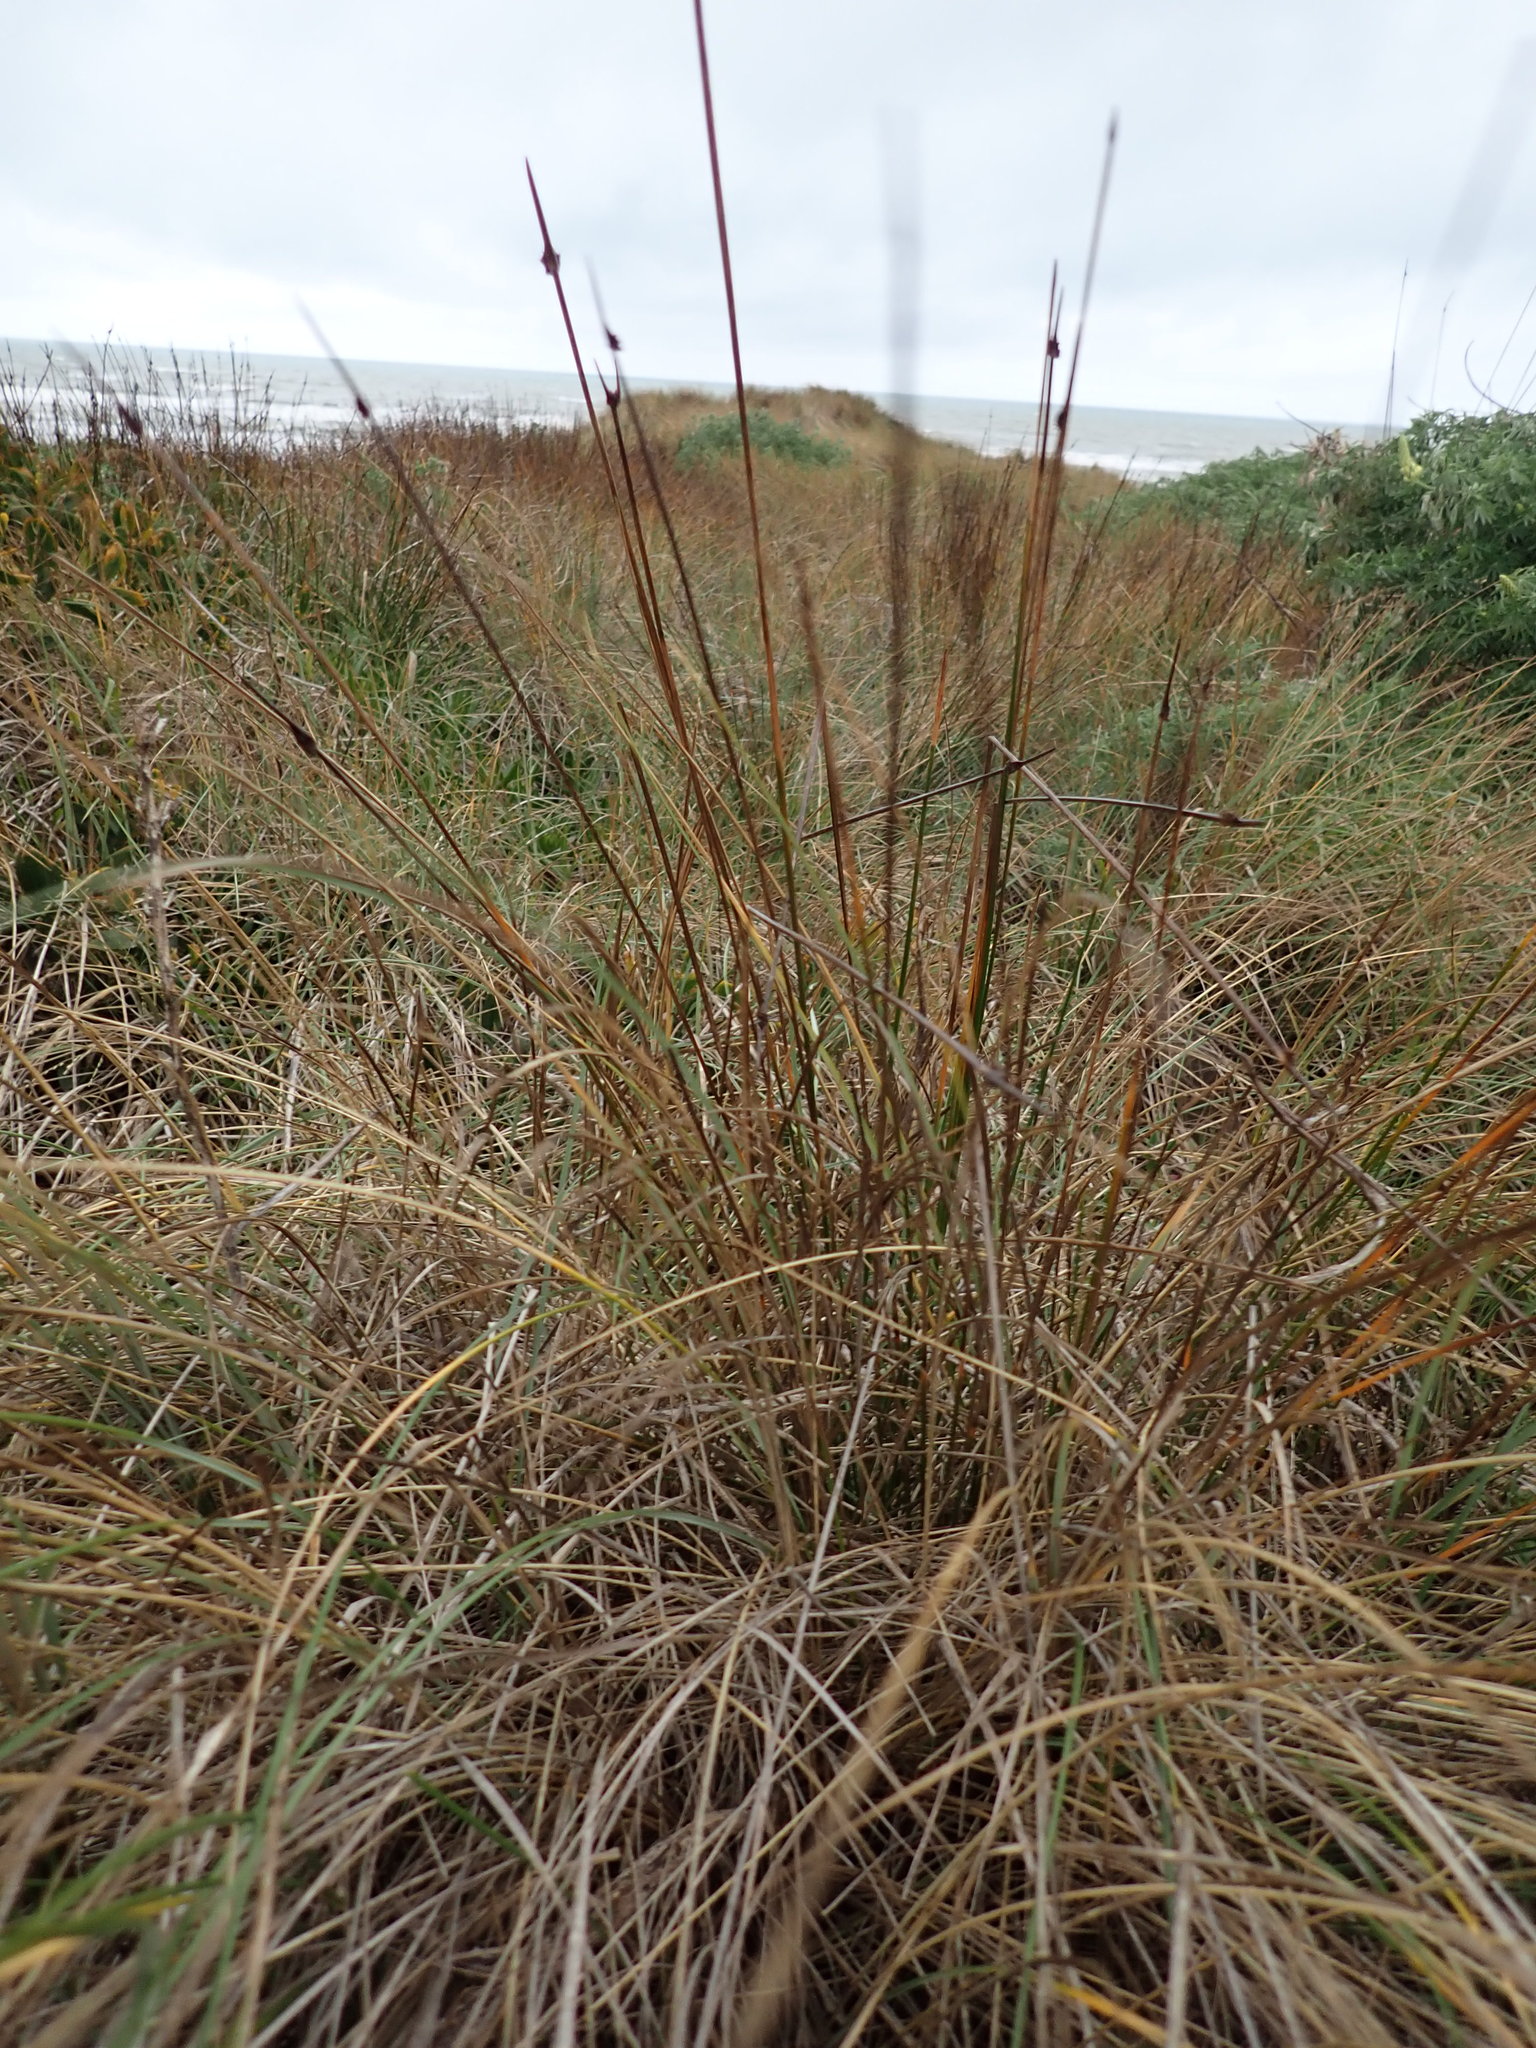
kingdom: Plantae
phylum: Tracheophyta
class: Liliopsida
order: Poales
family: Cyperaceae
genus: Ficinia
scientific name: Ficinia nodosa
